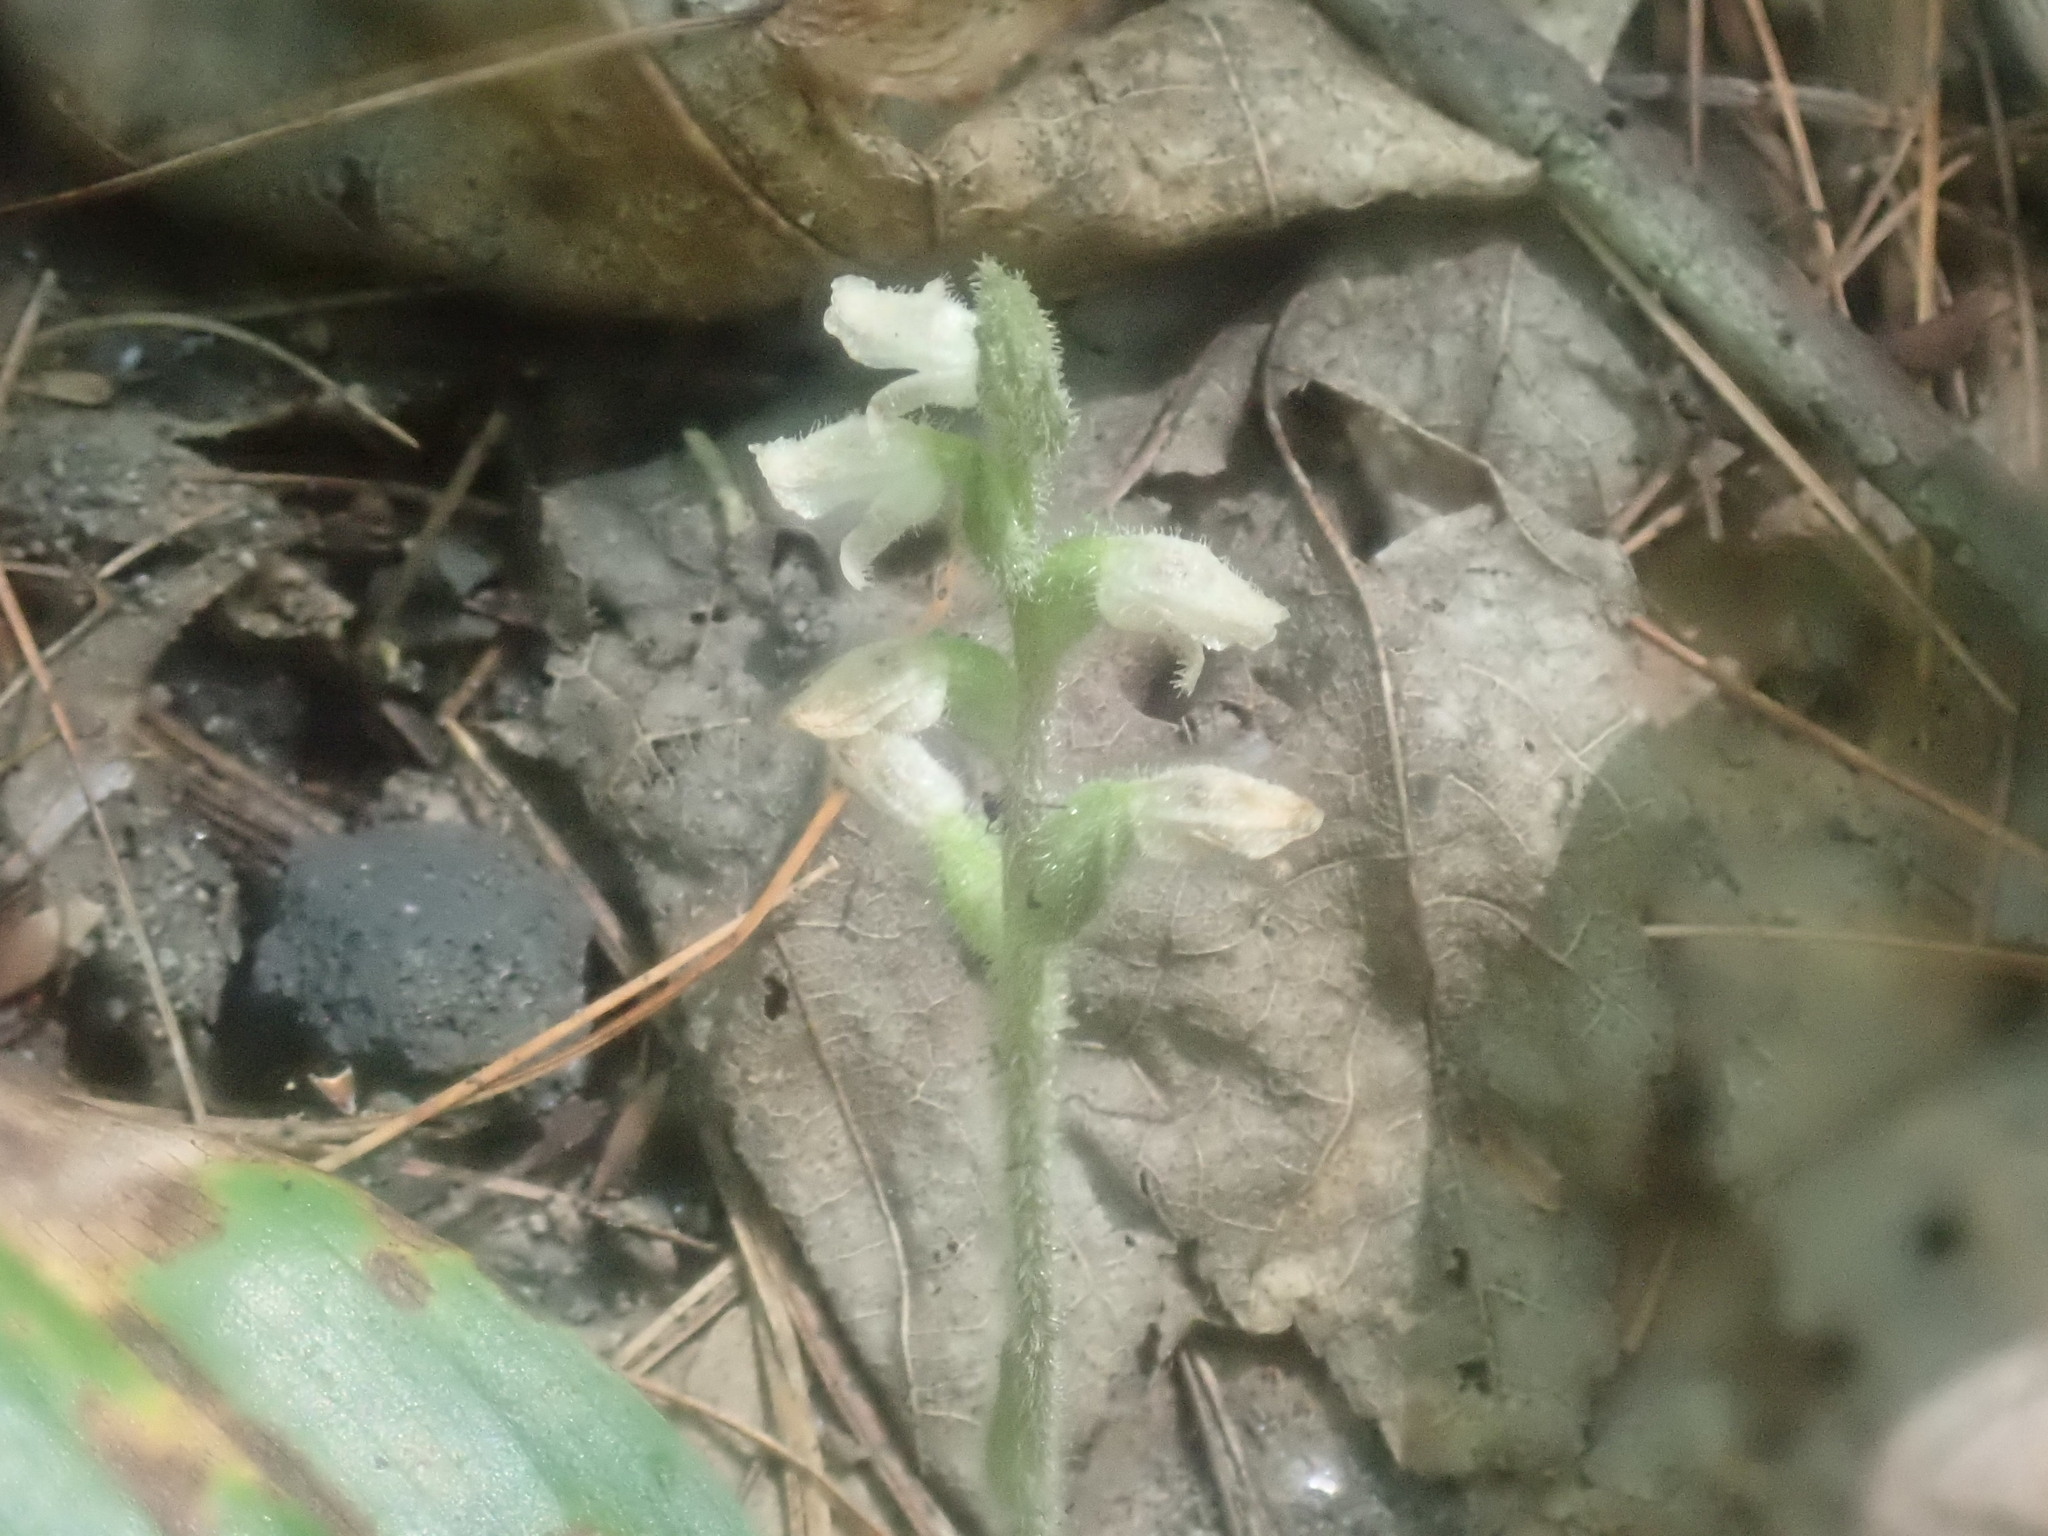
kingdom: Plantae
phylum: Tracheophyta
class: Liliopsida
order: Asparagales
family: Orchidaceae
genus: Goodyera
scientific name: Goodyera tesselata
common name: Checkered rattlesnake-plantain
